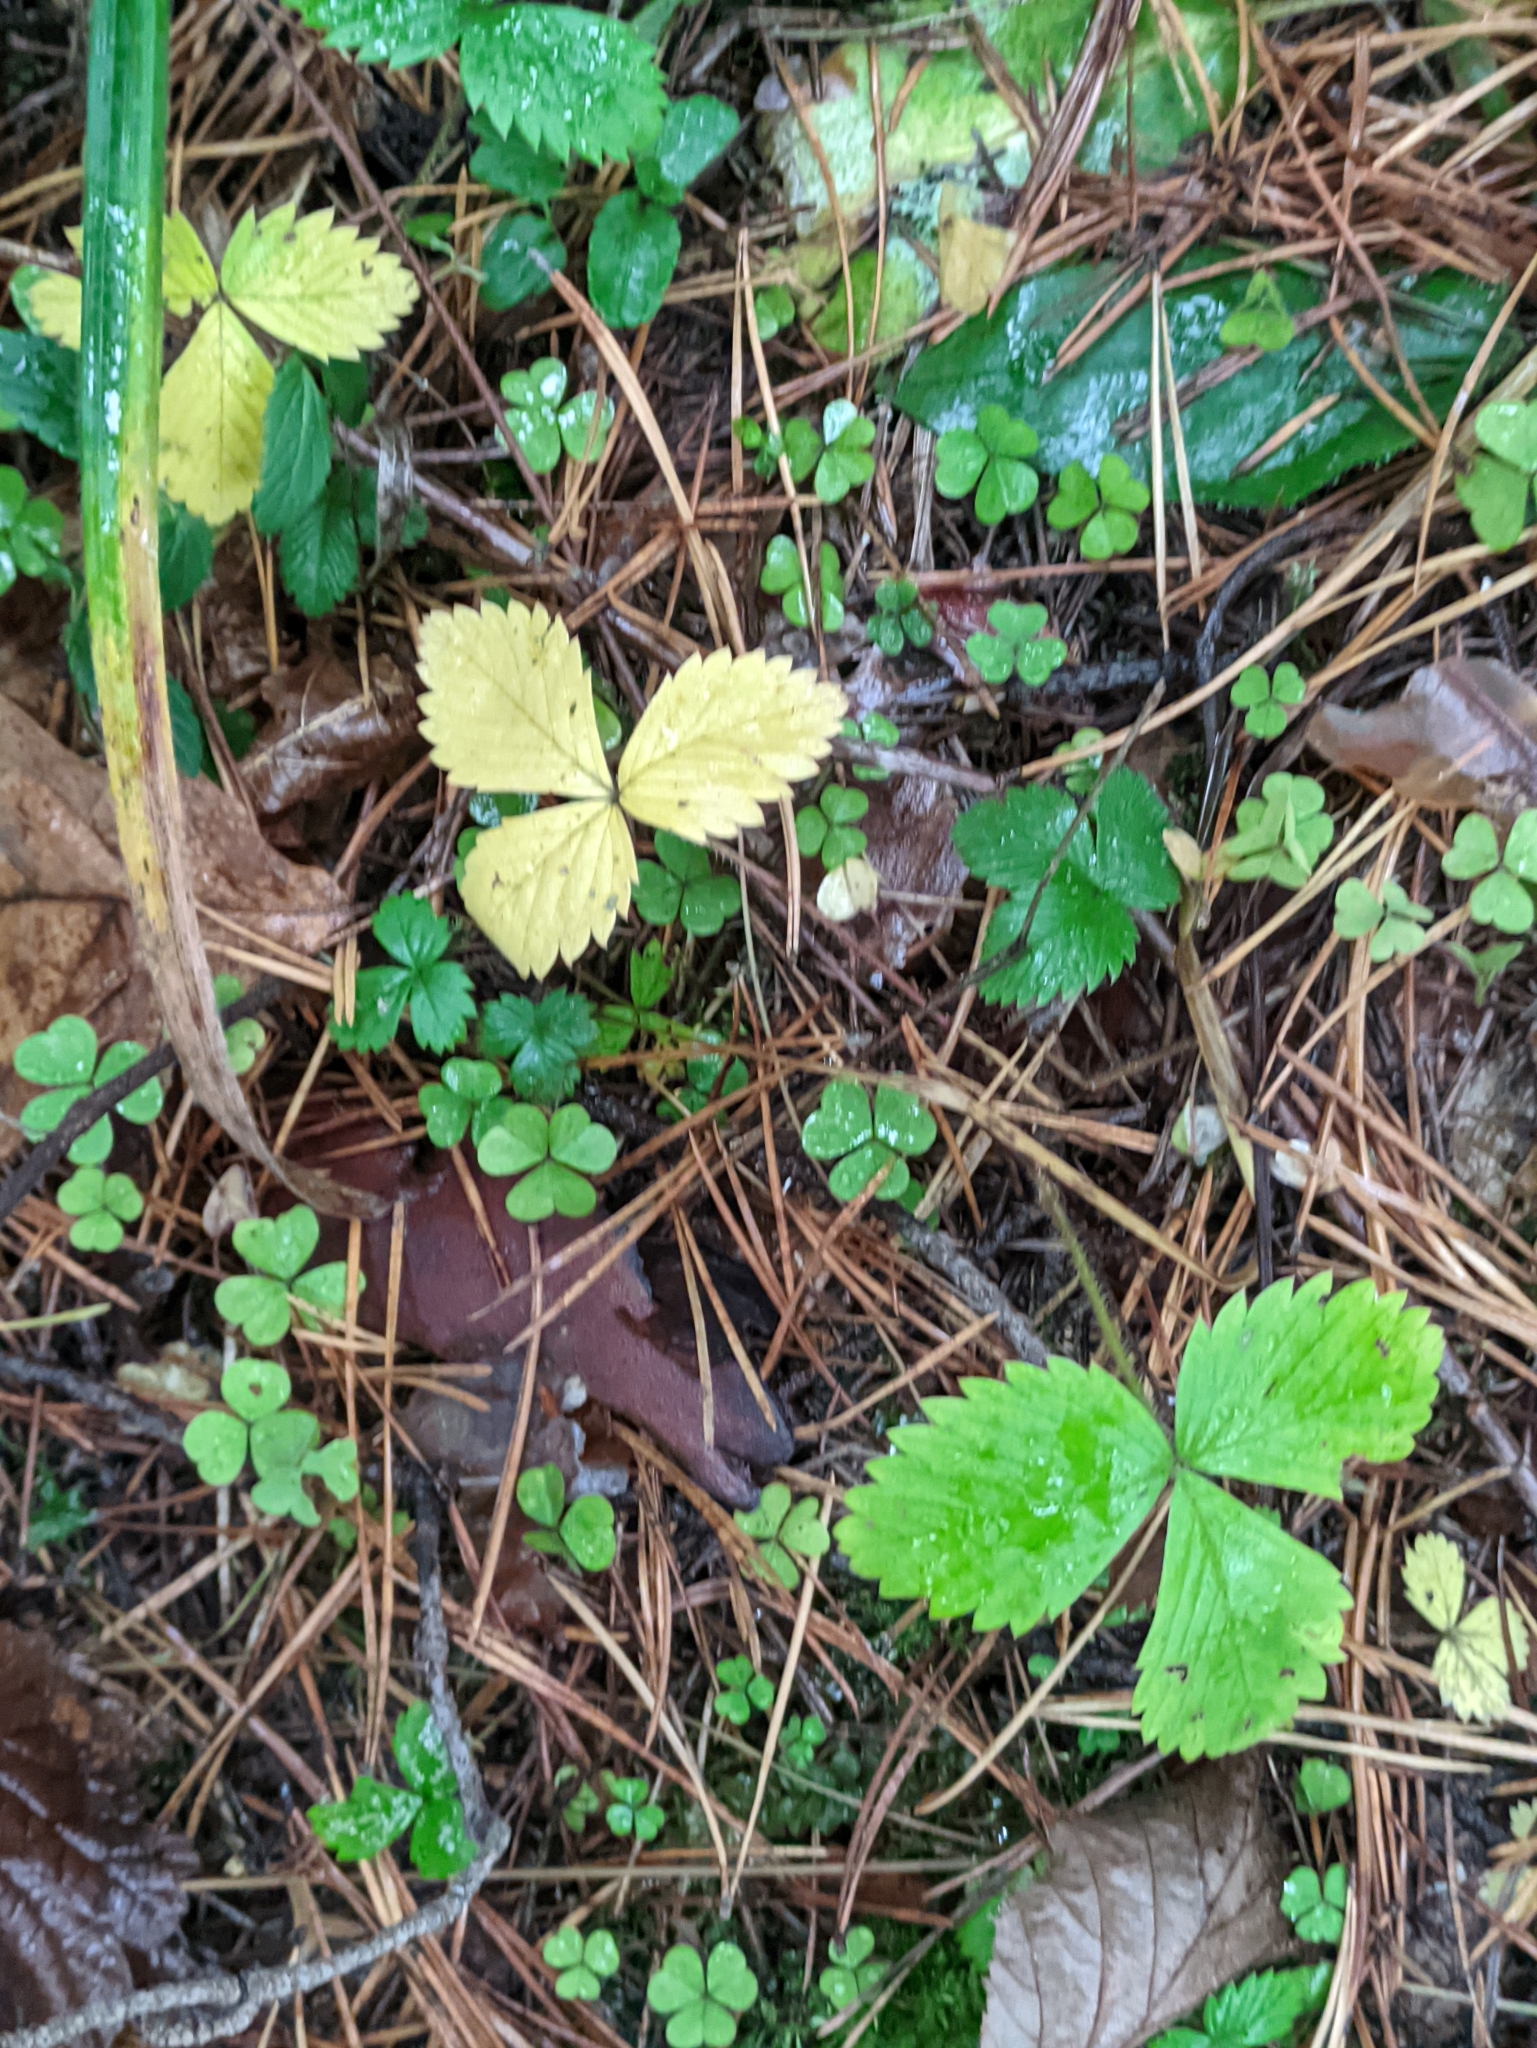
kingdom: Plantae
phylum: Tracheophyta
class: Magnoliopsida
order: Rosales
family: Rosaceae
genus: Fragaria
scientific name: Fragaria vesca
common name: Wild strawberry
